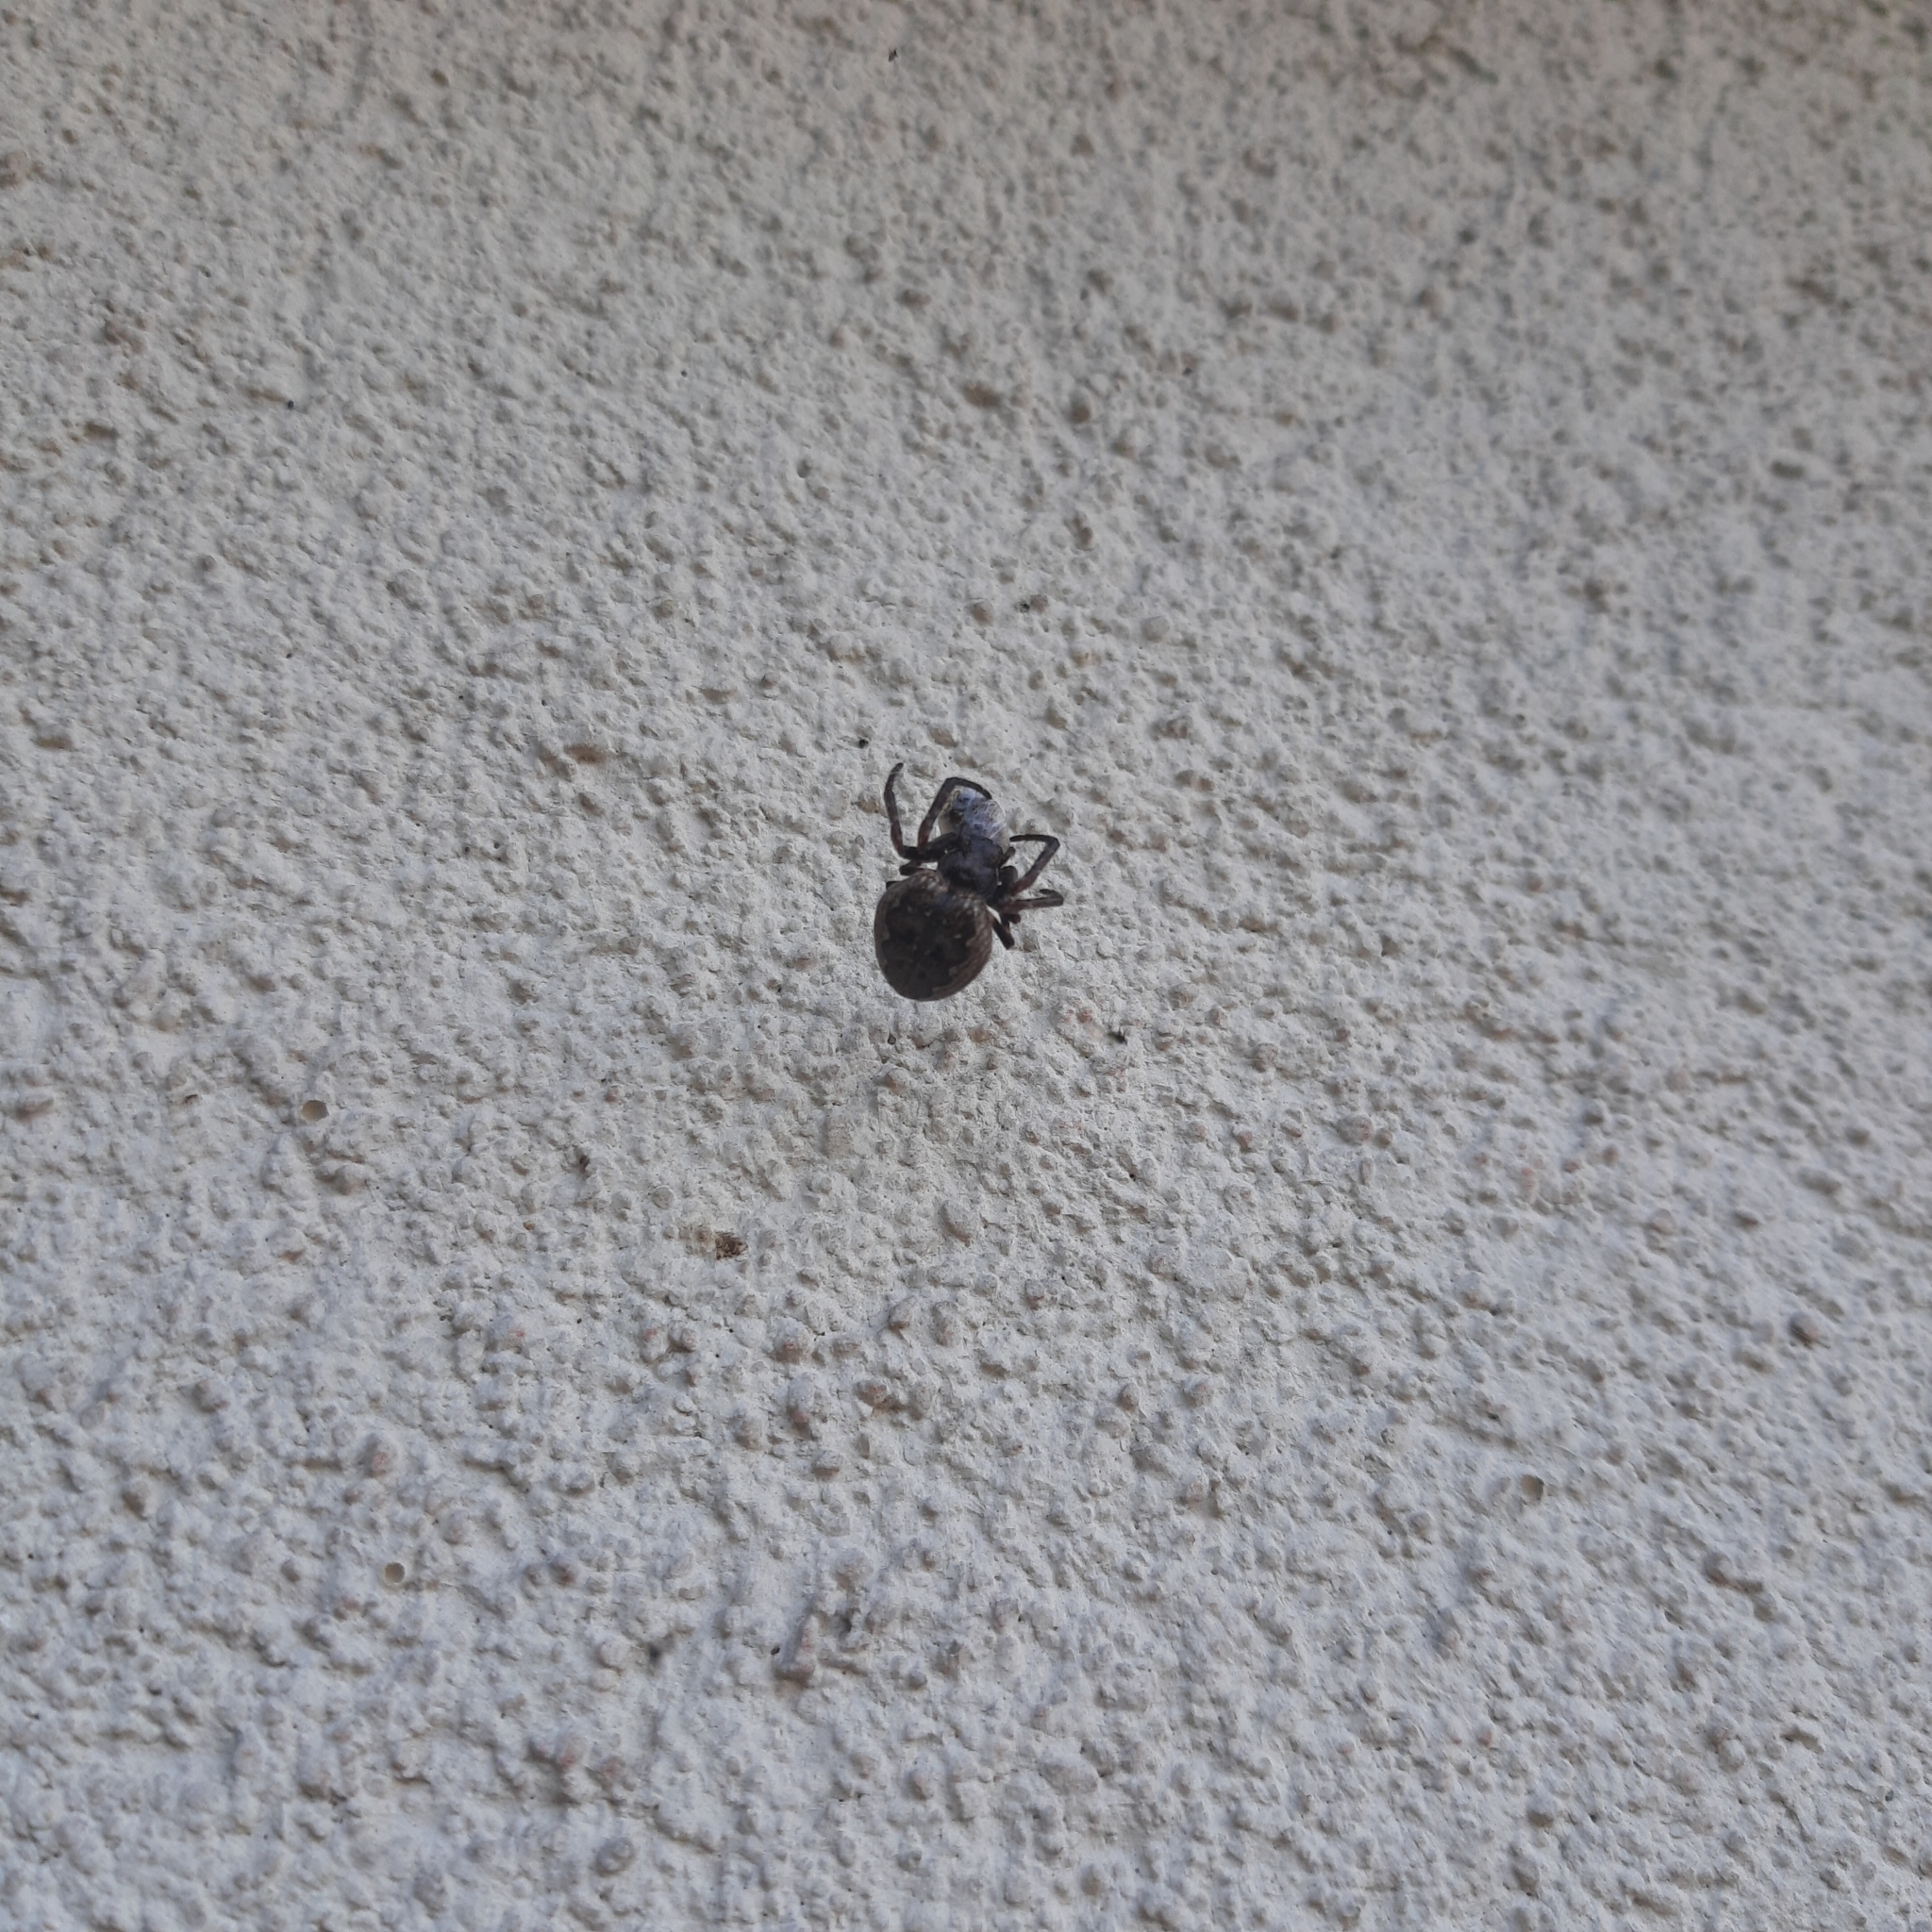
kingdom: Animalia
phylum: Arthropoda
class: Arachnida
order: Araneae
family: Araneidae
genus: Nuctenea
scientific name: Nuctenea umbratica
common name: Toad spider
